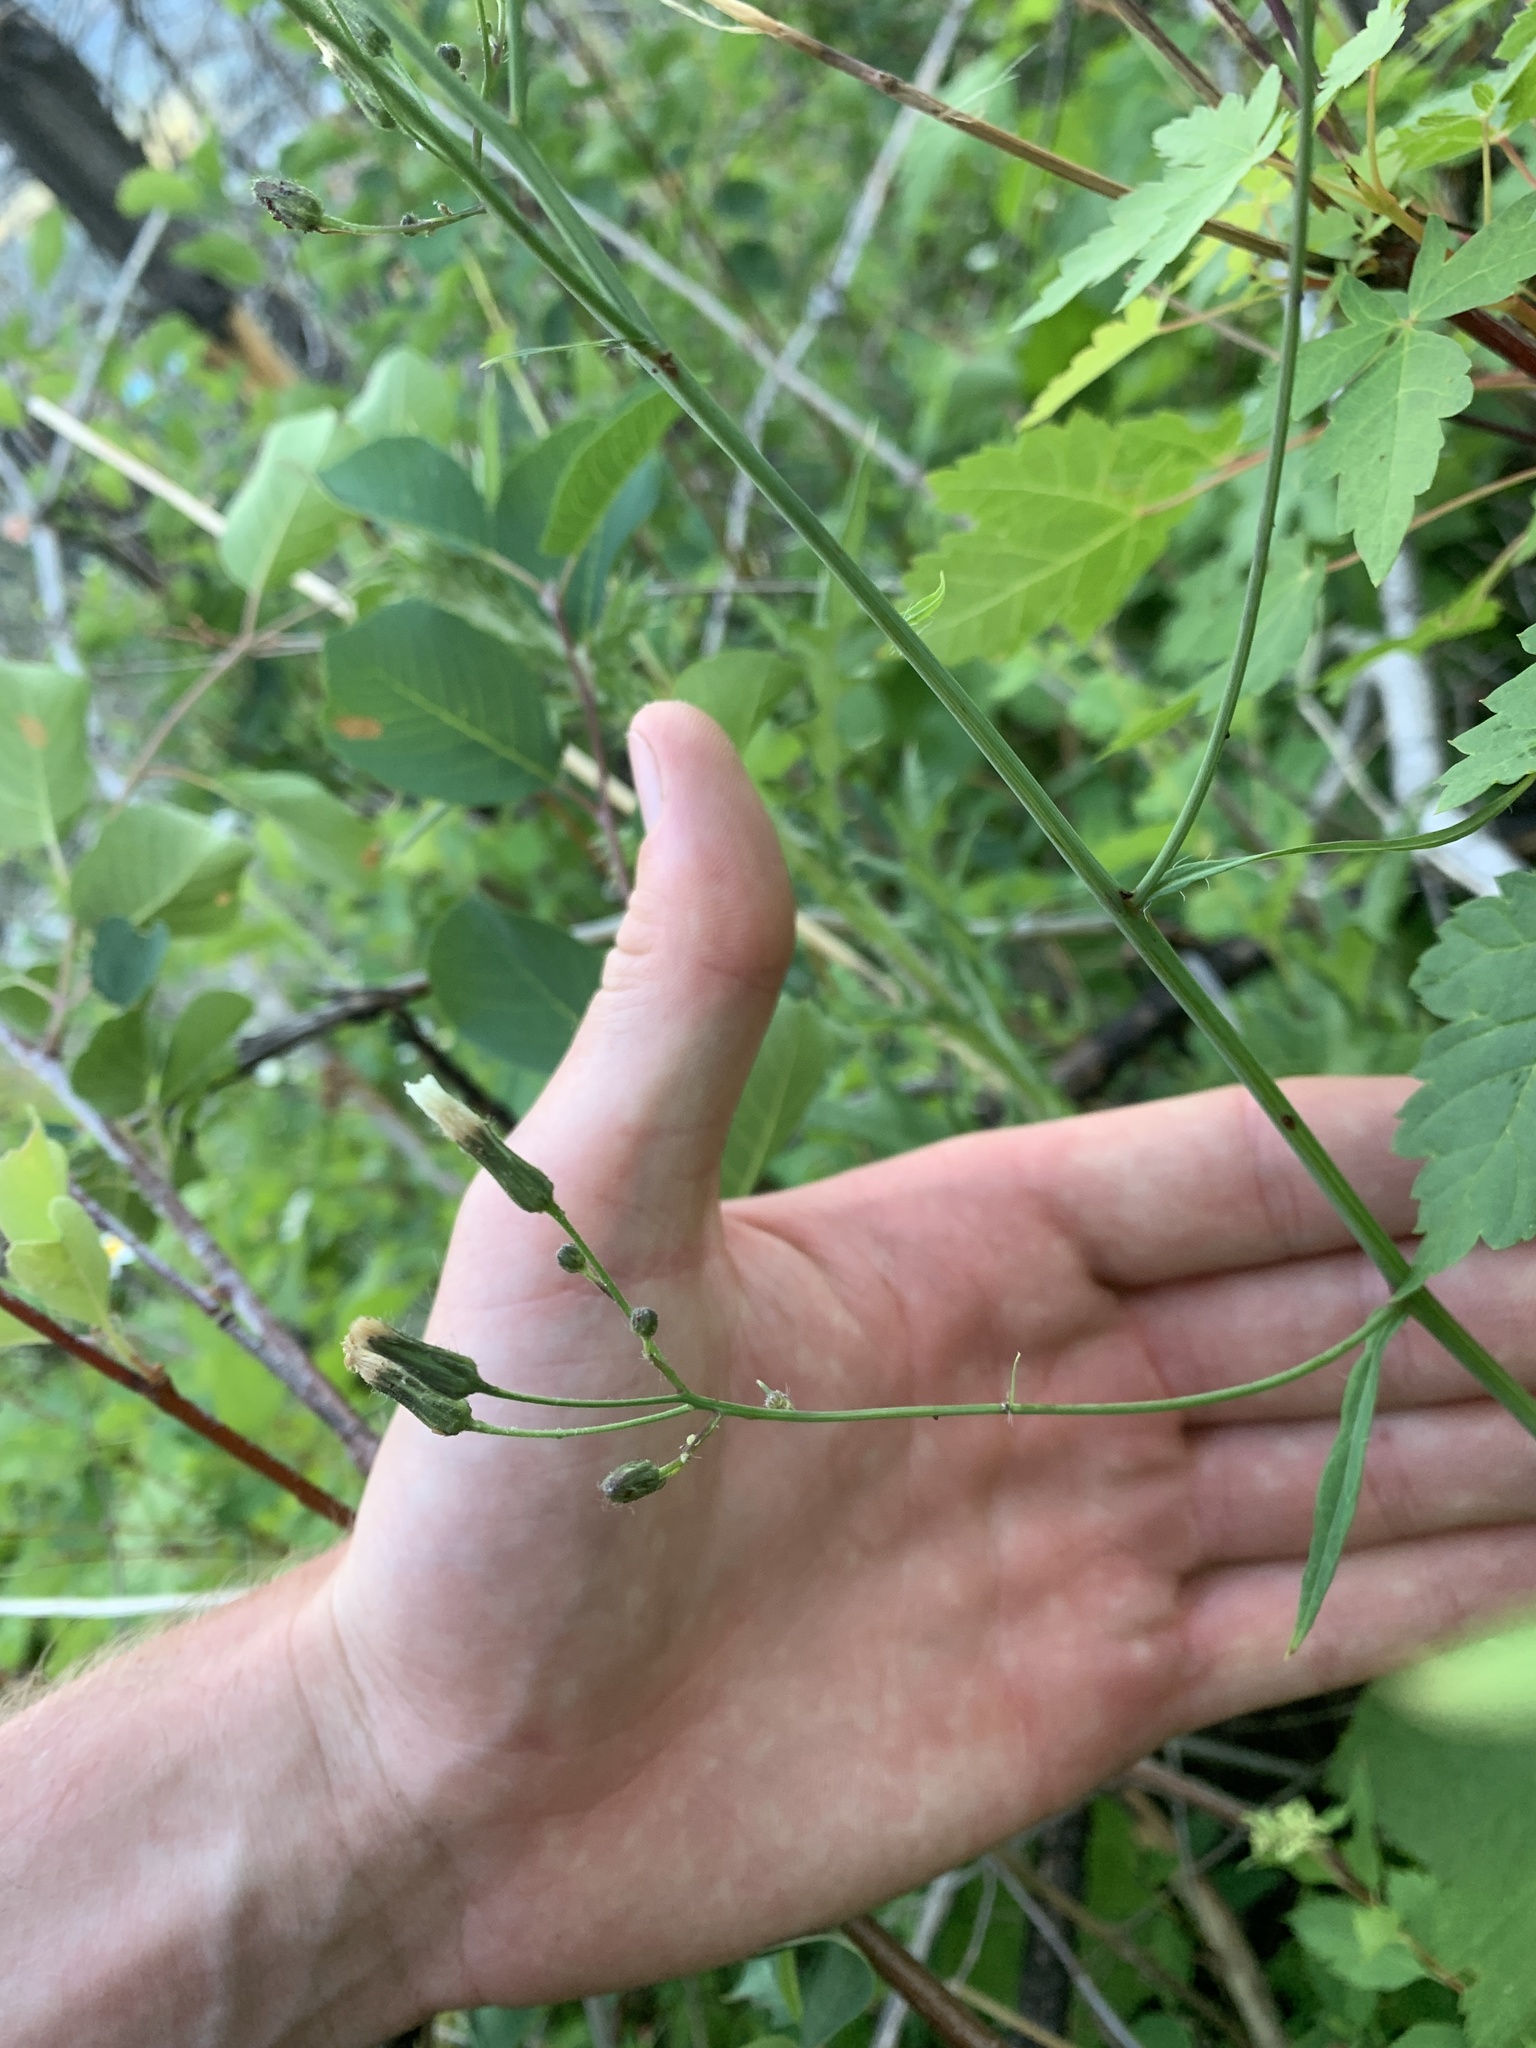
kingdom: Plantae
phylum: Tracheophyta
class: Magnoliopsida
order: Asterales
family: Asteraceae
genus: Hieracium
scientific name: Hieracium albiflorum
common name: White hawkweed
